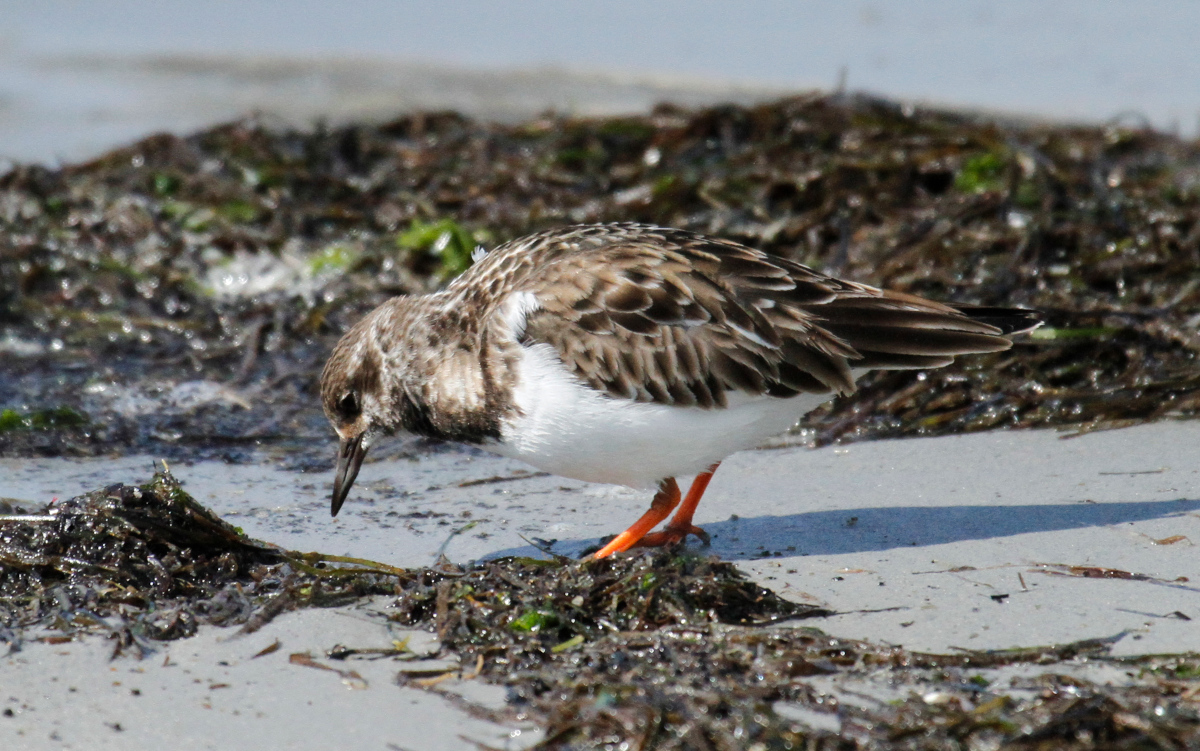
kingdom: Animalia
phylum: Chordata
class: Aves
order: Charadriiformes
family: Scolopacidae
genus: Arenaria
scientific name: Arenaria interpres
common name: Ruddy turnstone
